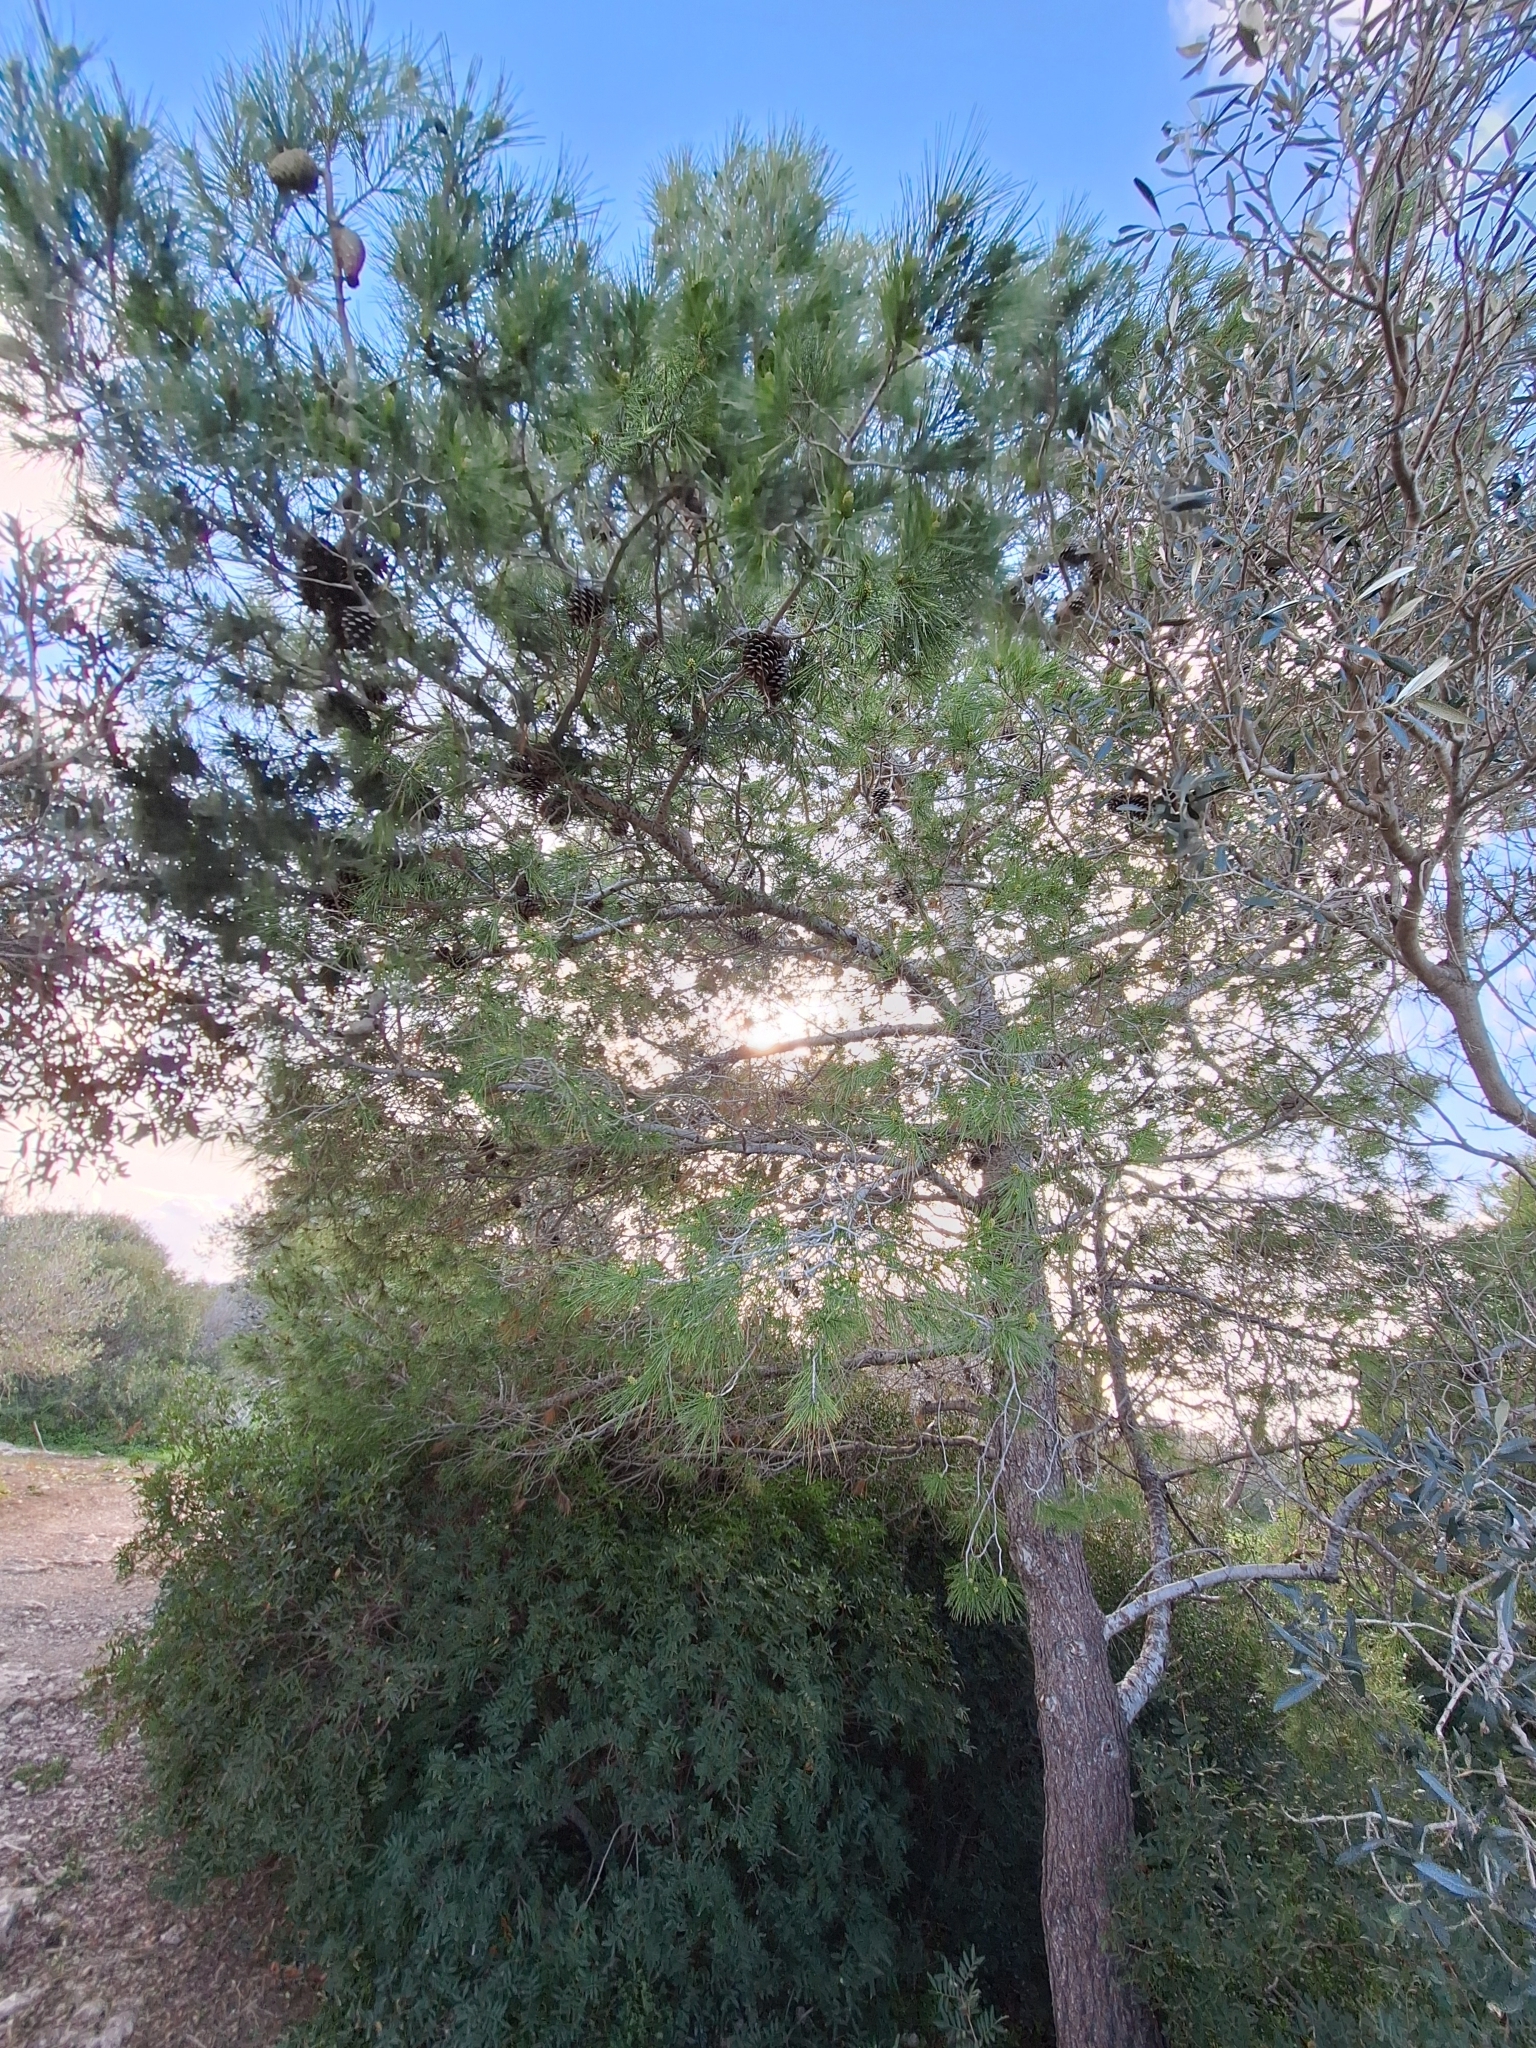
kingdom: Plantae
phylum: Tracheophyta
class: Pinopsida
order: Pinales
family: Pinaceae
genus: Pinus
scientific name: Pinus halepensis
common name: Aleppo pine
